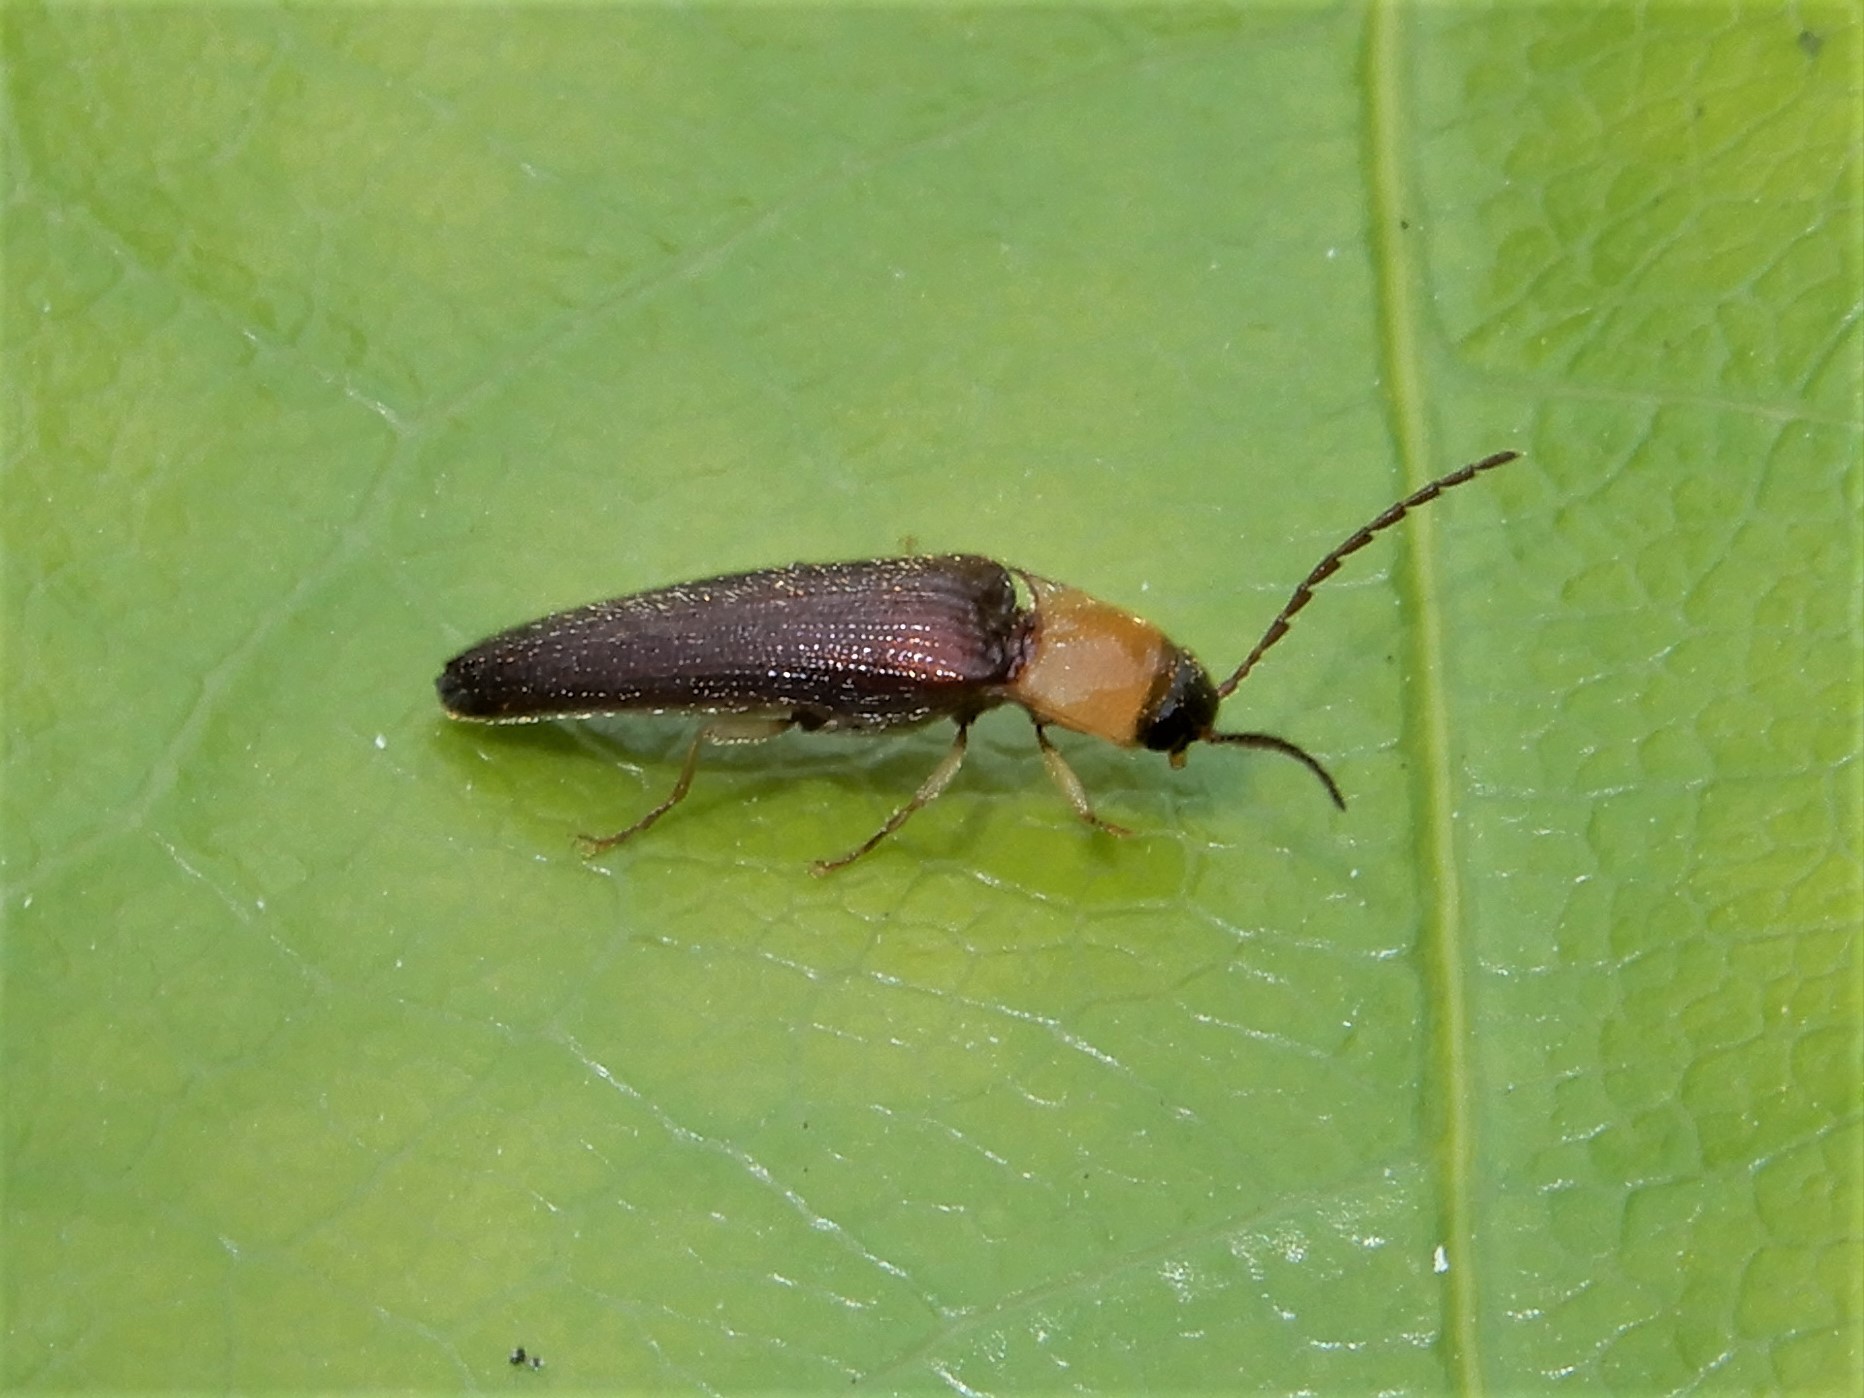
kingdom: Animalia
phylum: Arthropoda
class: Insecta
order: Coleoptera
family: Elateridae
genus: Sphaenelater
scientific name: Sphaenelater
